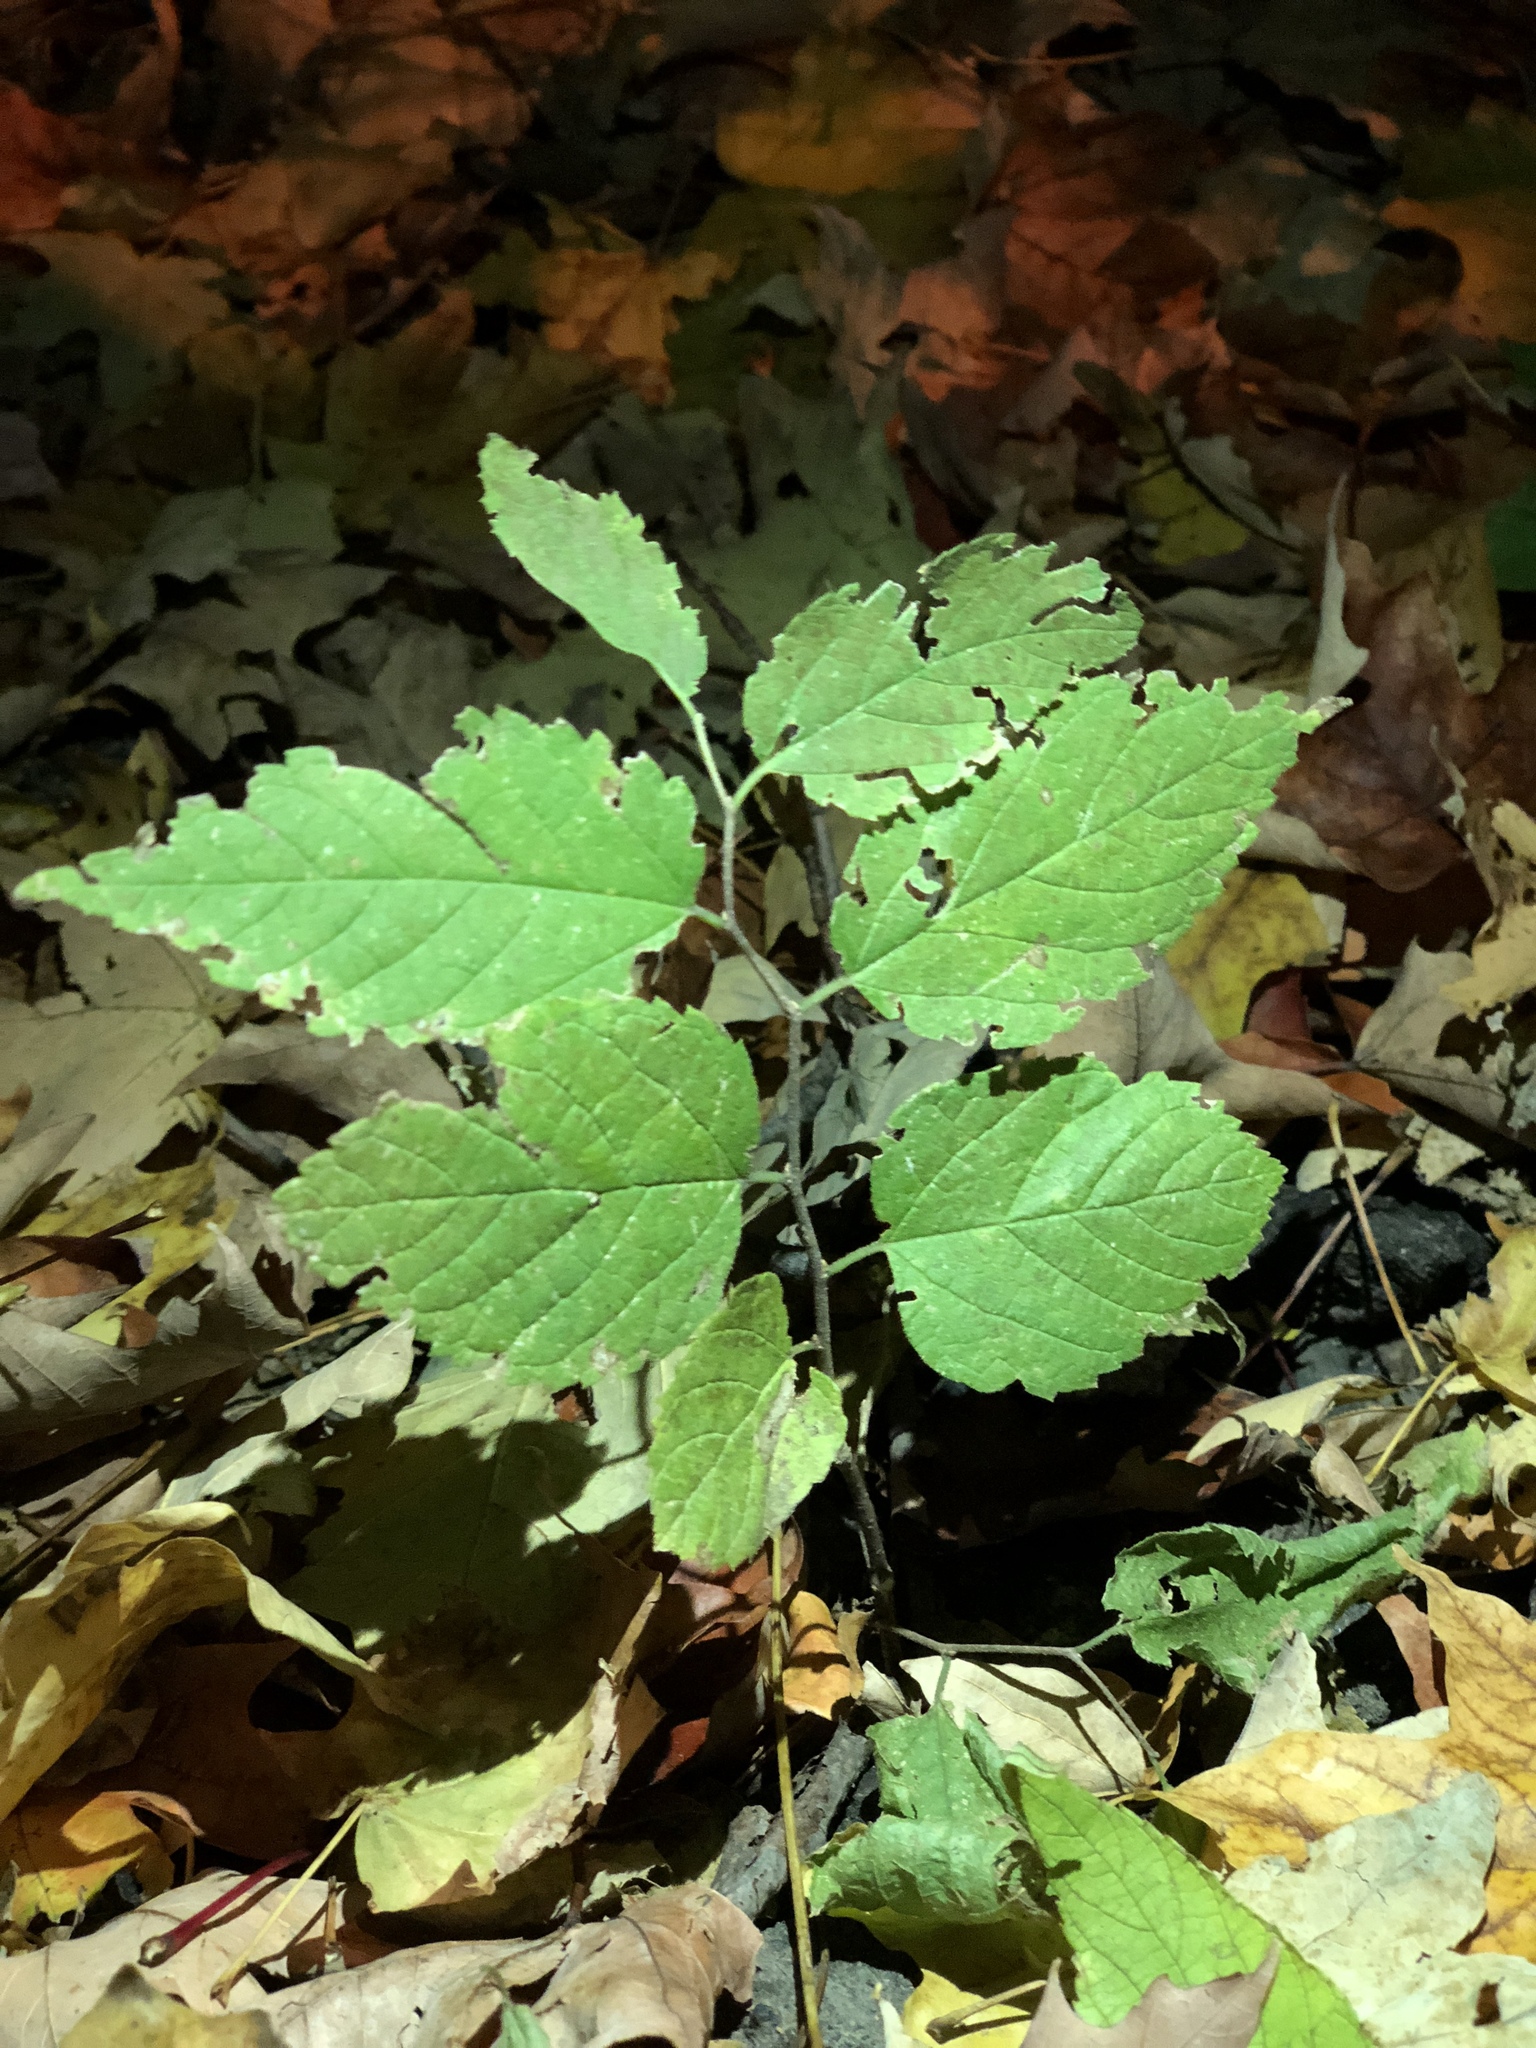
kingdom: Plantae
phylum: Tracheophyta
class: Magnoliopsida
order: Rosales
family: Cannabaceae
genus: Celtis
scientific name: Celtis occidentalis
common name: Common hackberry
